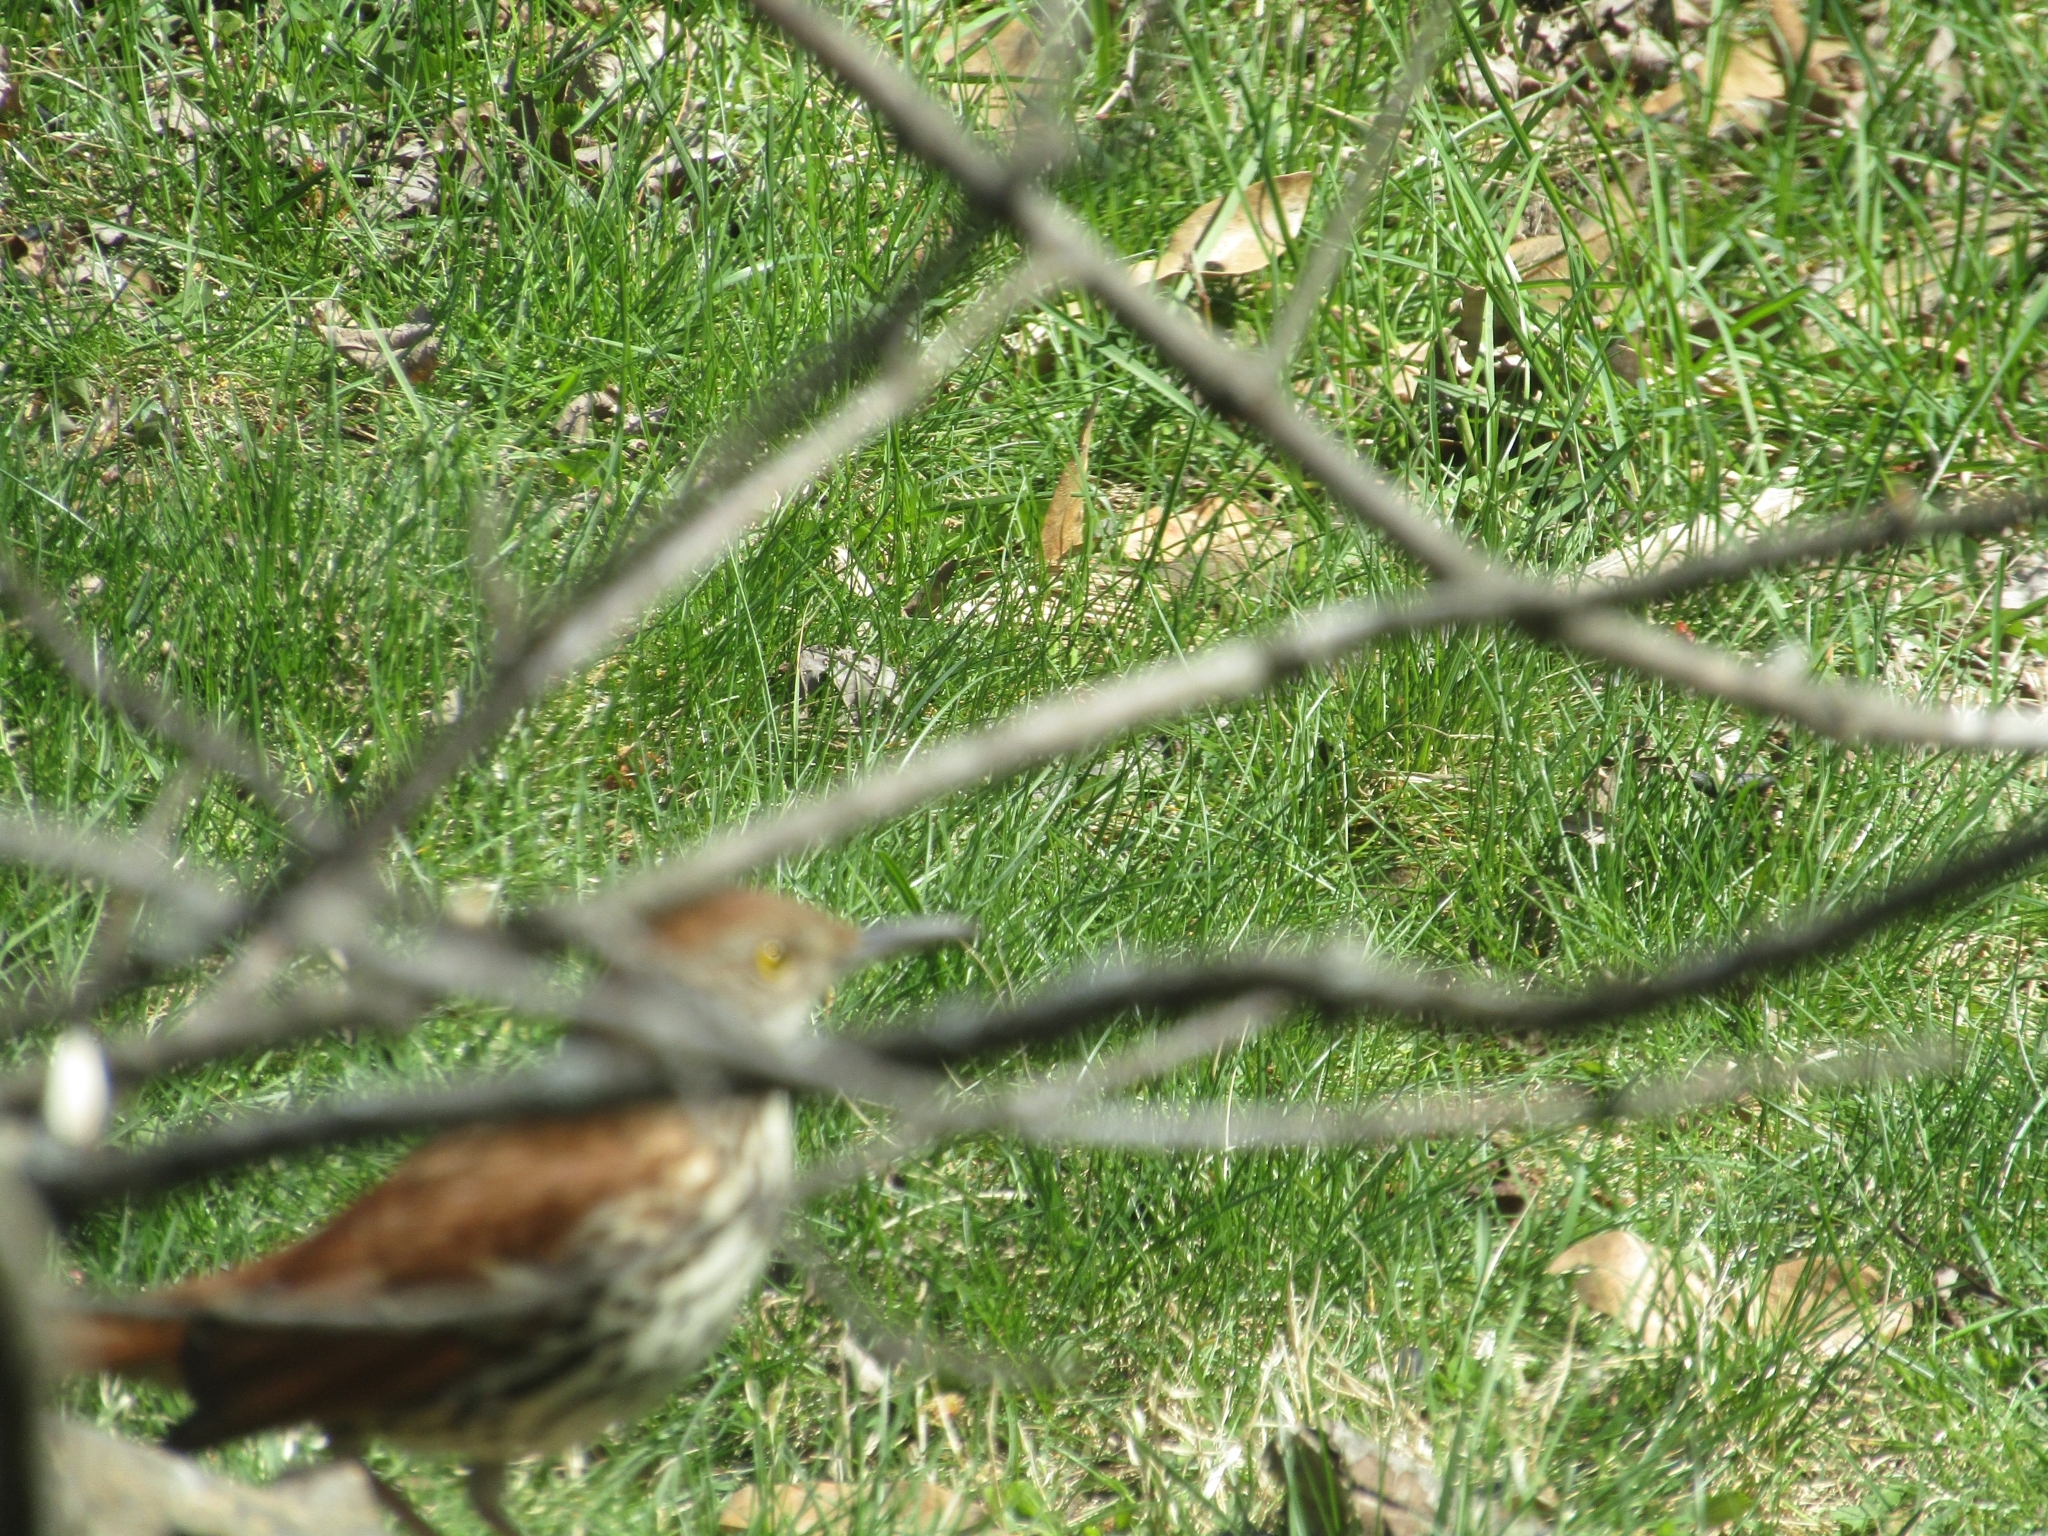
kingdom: Animalia
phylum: Chordata
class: Aves
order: Passeriformes
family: Mimidae
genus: Toxostoma
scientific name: Toxostoma rufum
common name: Brown thrasher
